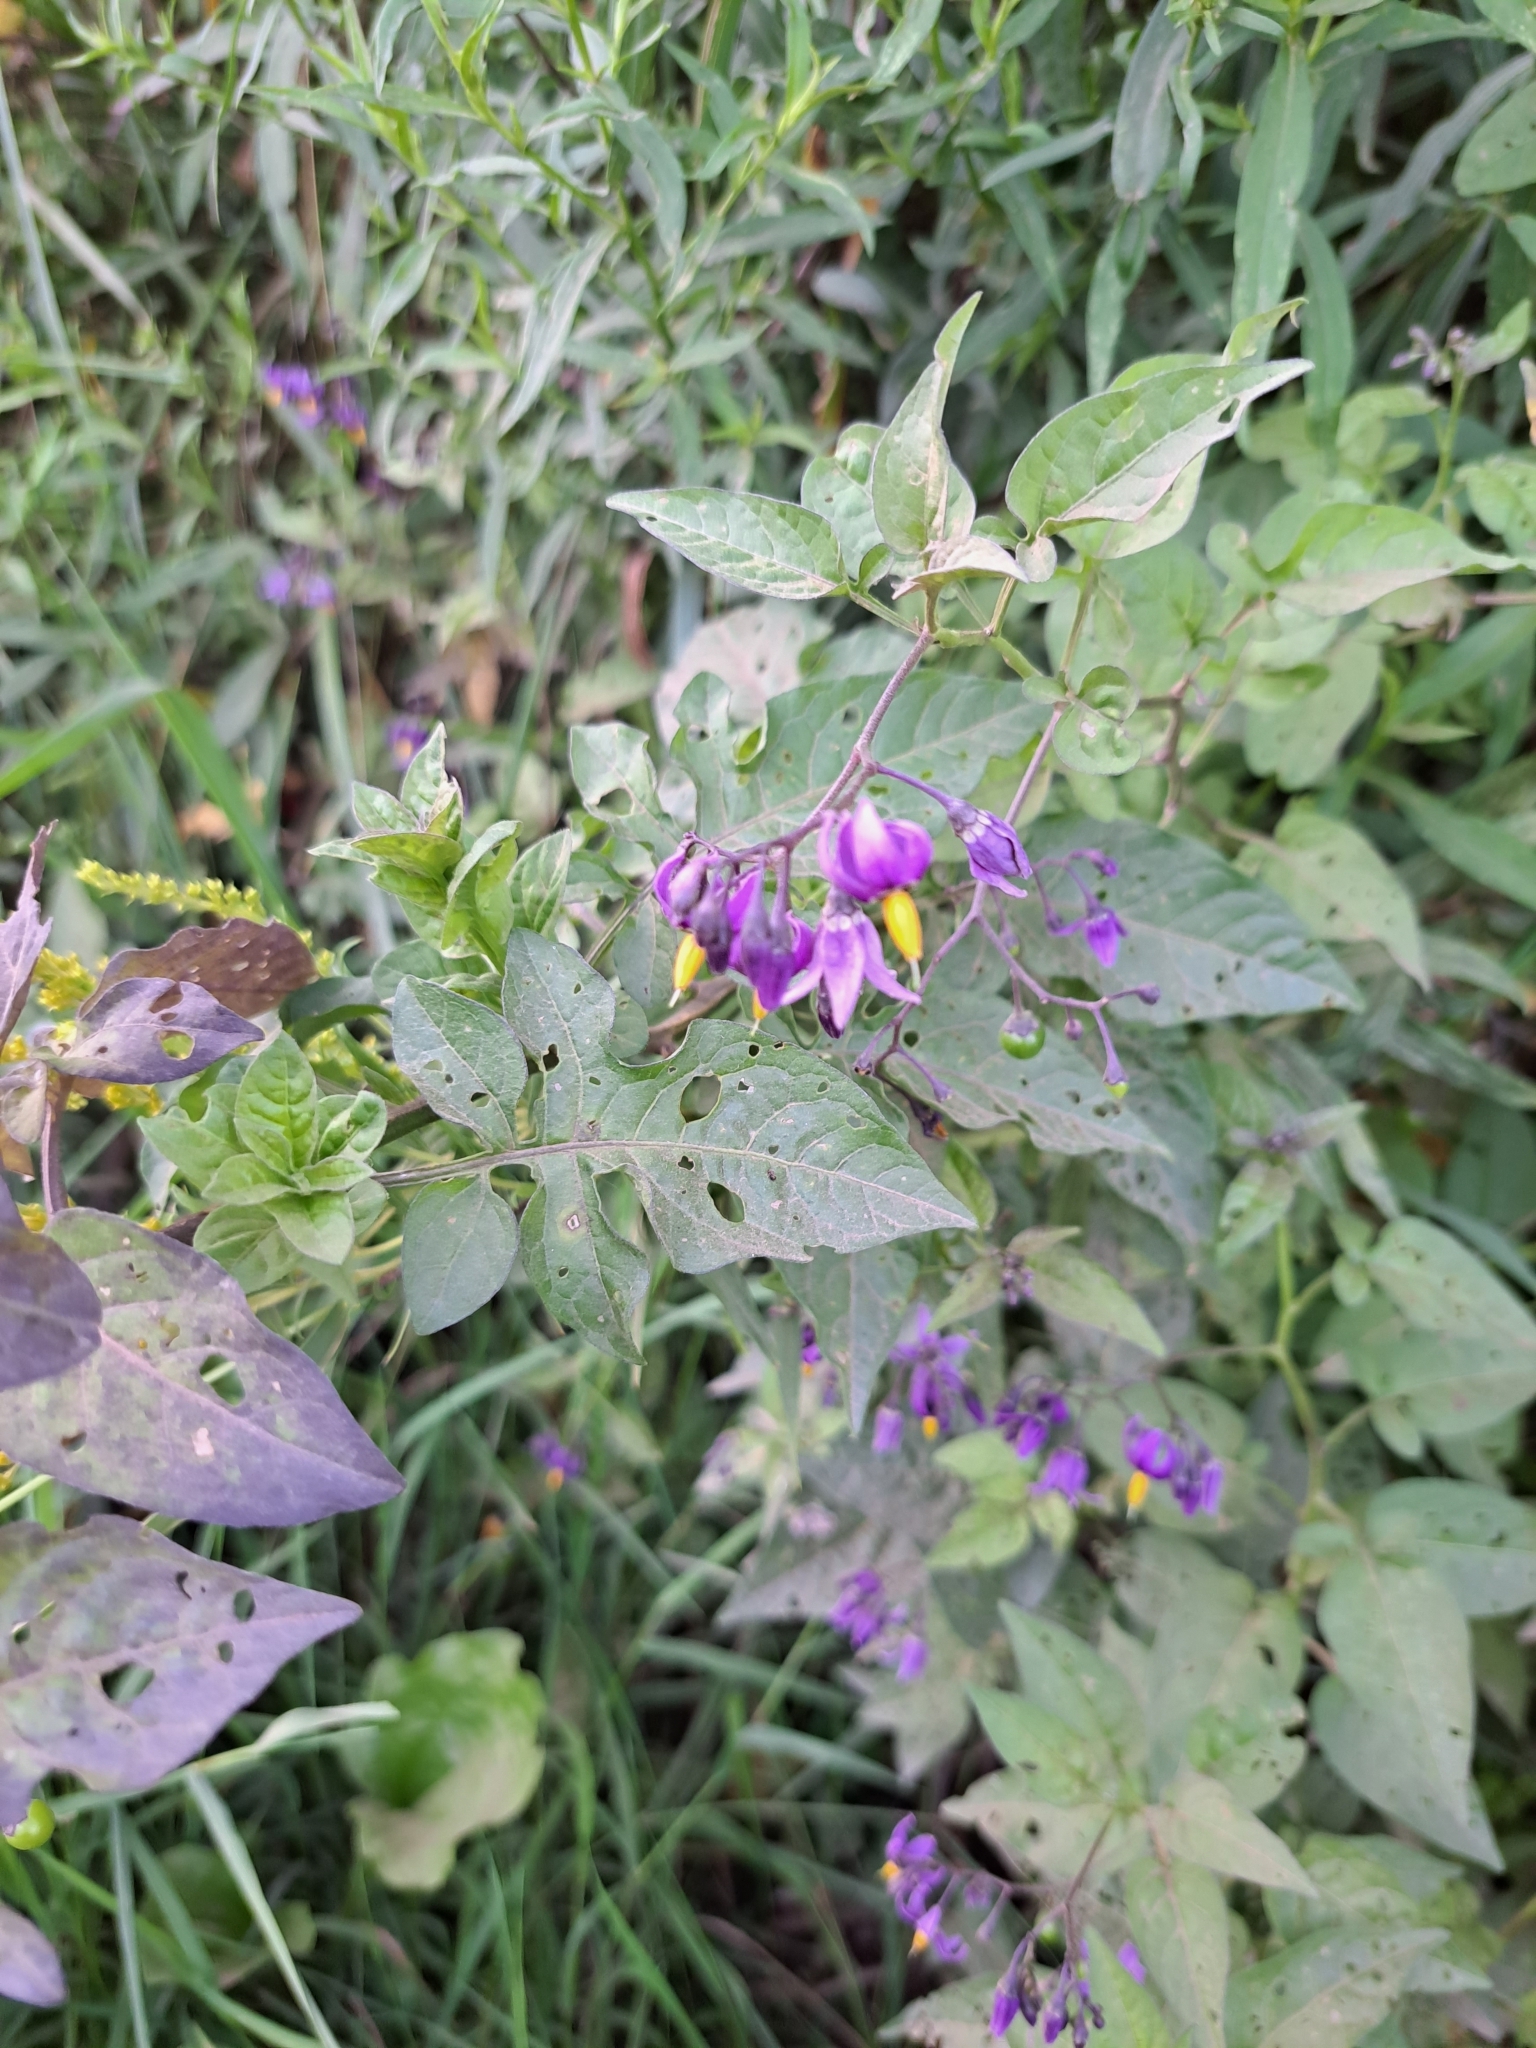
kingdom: Plantae
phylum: Tracheophyta
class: Magnoliopsida
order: Solanales
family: Solanaceae
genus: Solanum
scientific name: Solanum dulcamara
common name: Climbing nightshade
